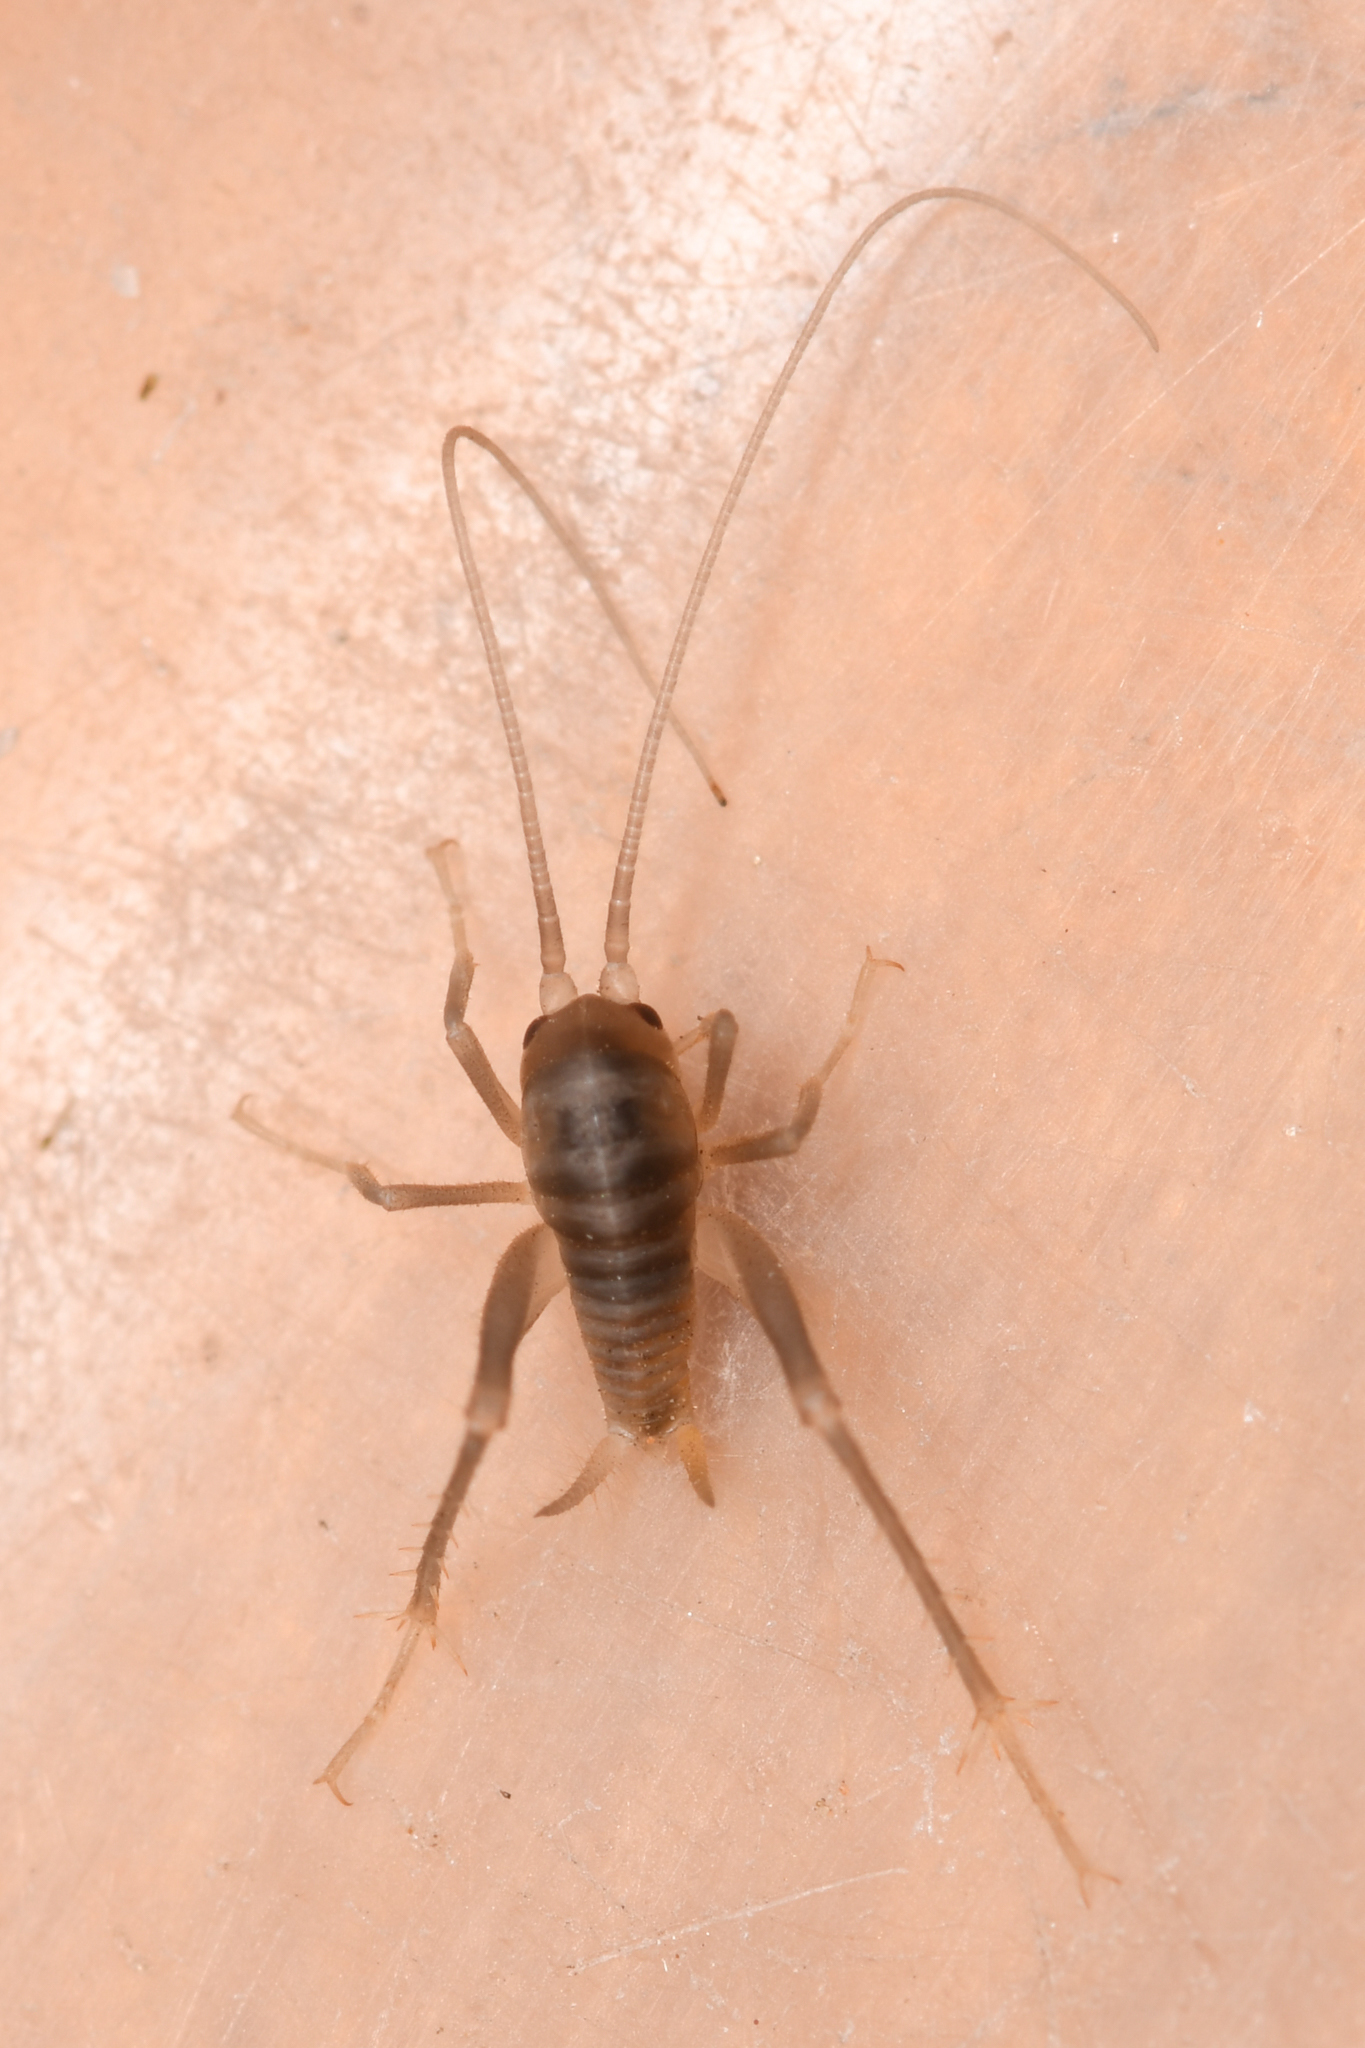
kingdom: Animalia
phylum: Arthropoda
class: Insecta
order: Orthoptera
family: Rhaphidophoridae
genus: Ceuthophilus
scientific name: Ceuthophilus hesperus
